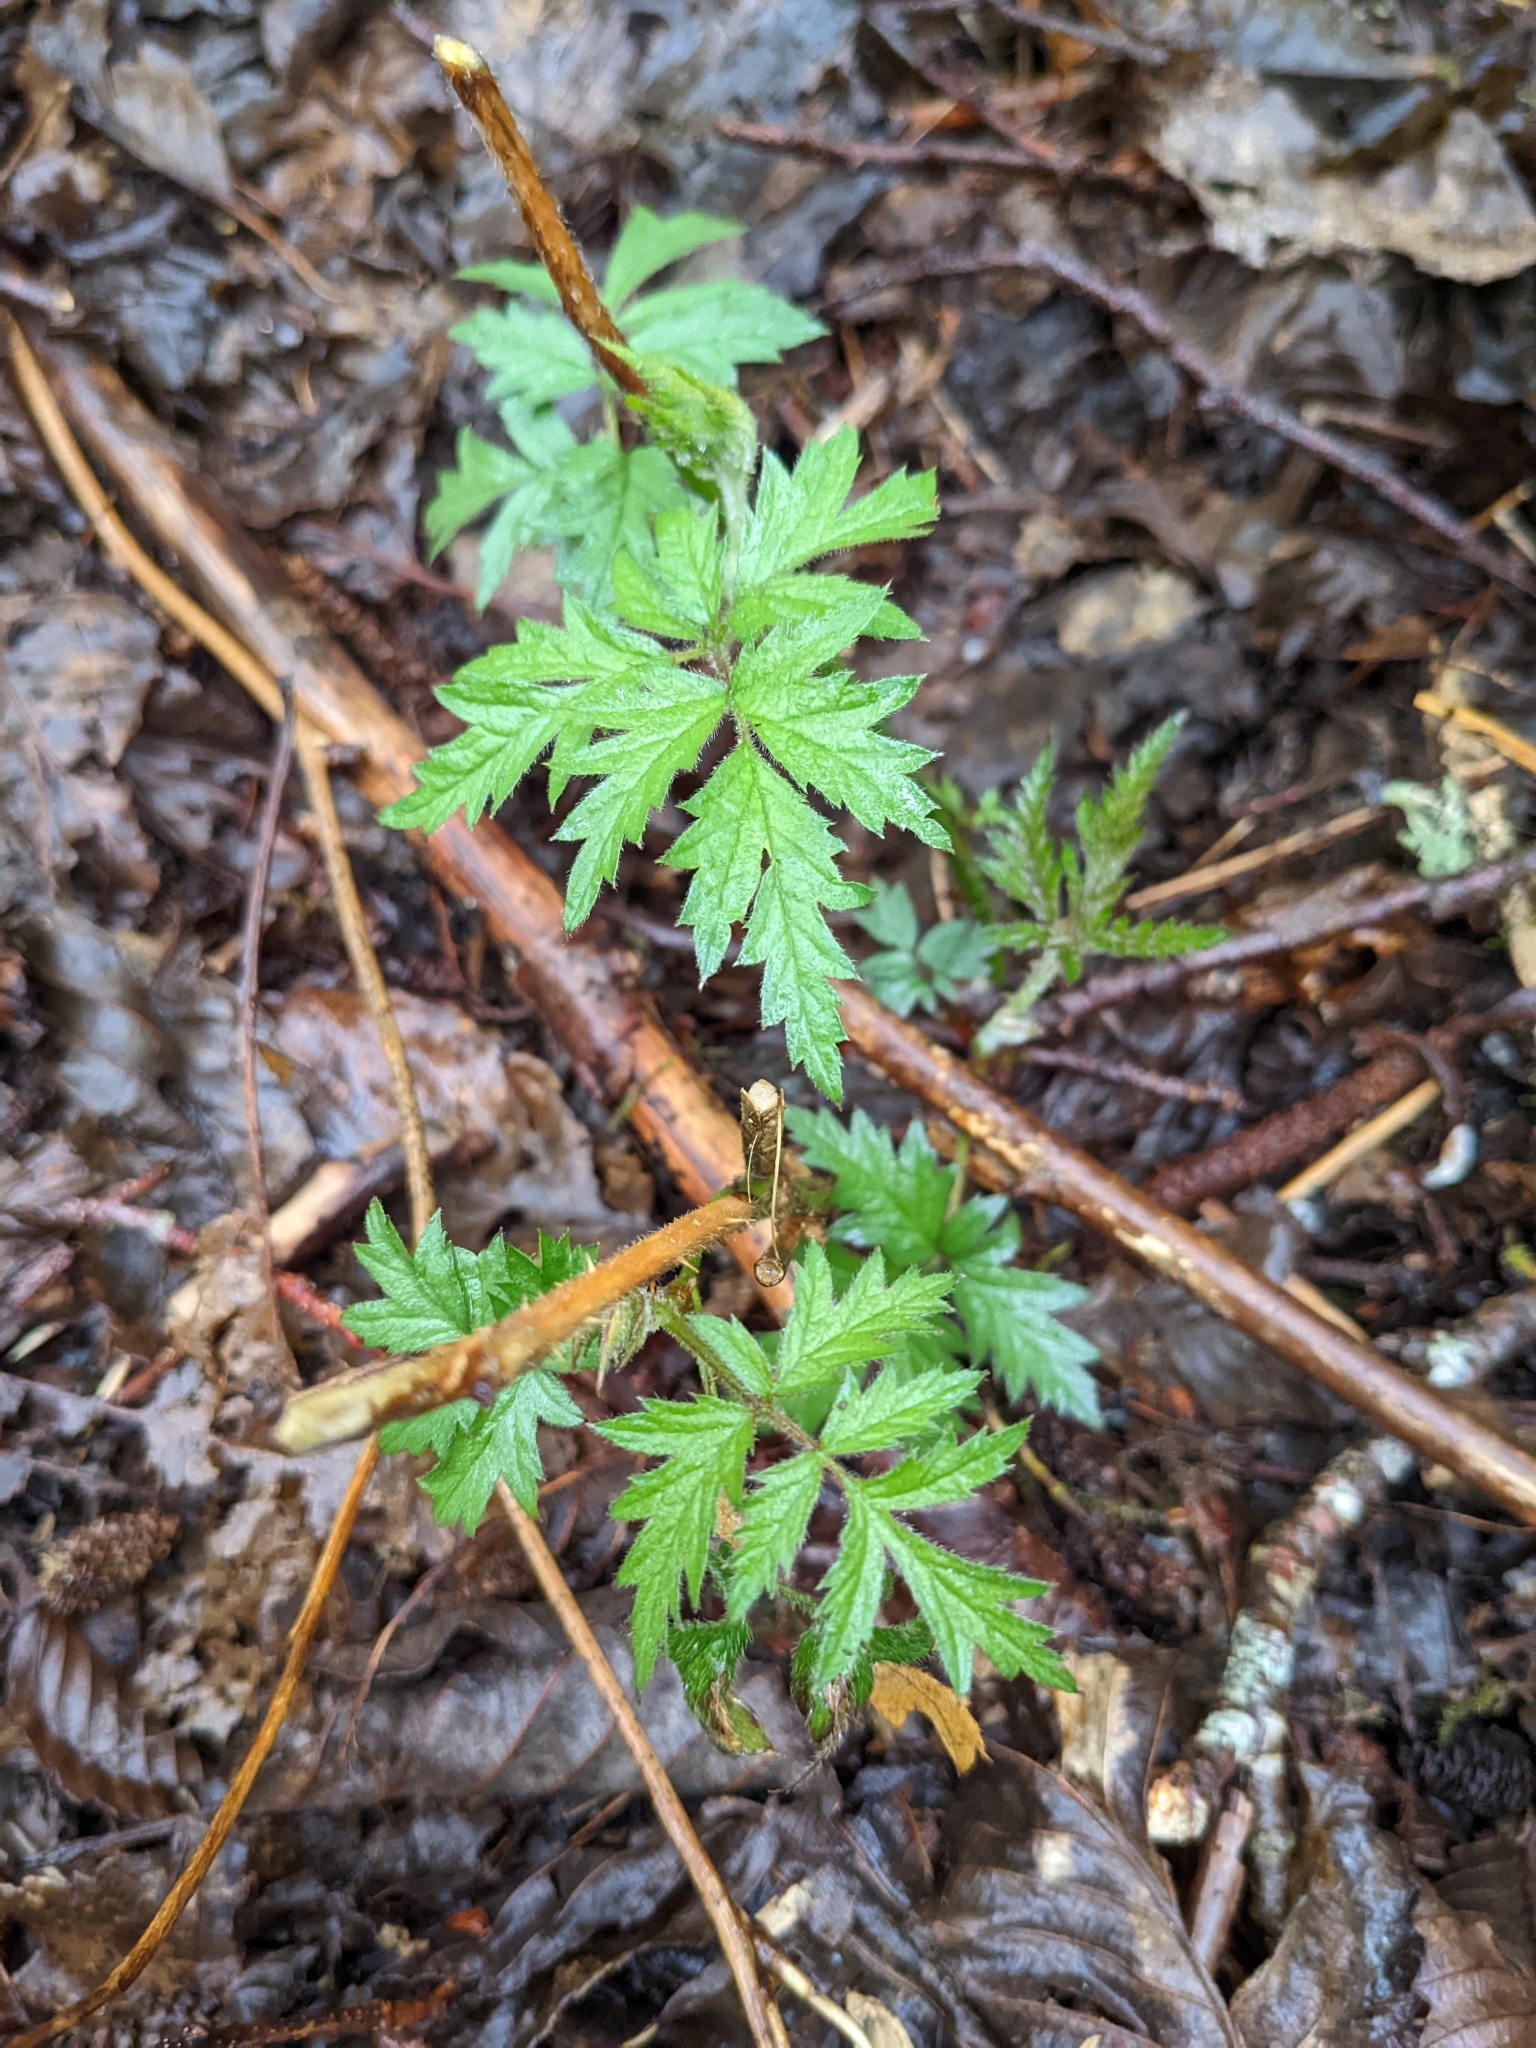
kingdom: Plantae
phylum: Tracheophyta
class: Magnoliopsida
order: Rosales
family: Rosaceae
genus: Rubus
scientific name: Rubus laciniatus
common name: Evergreen blackberry
